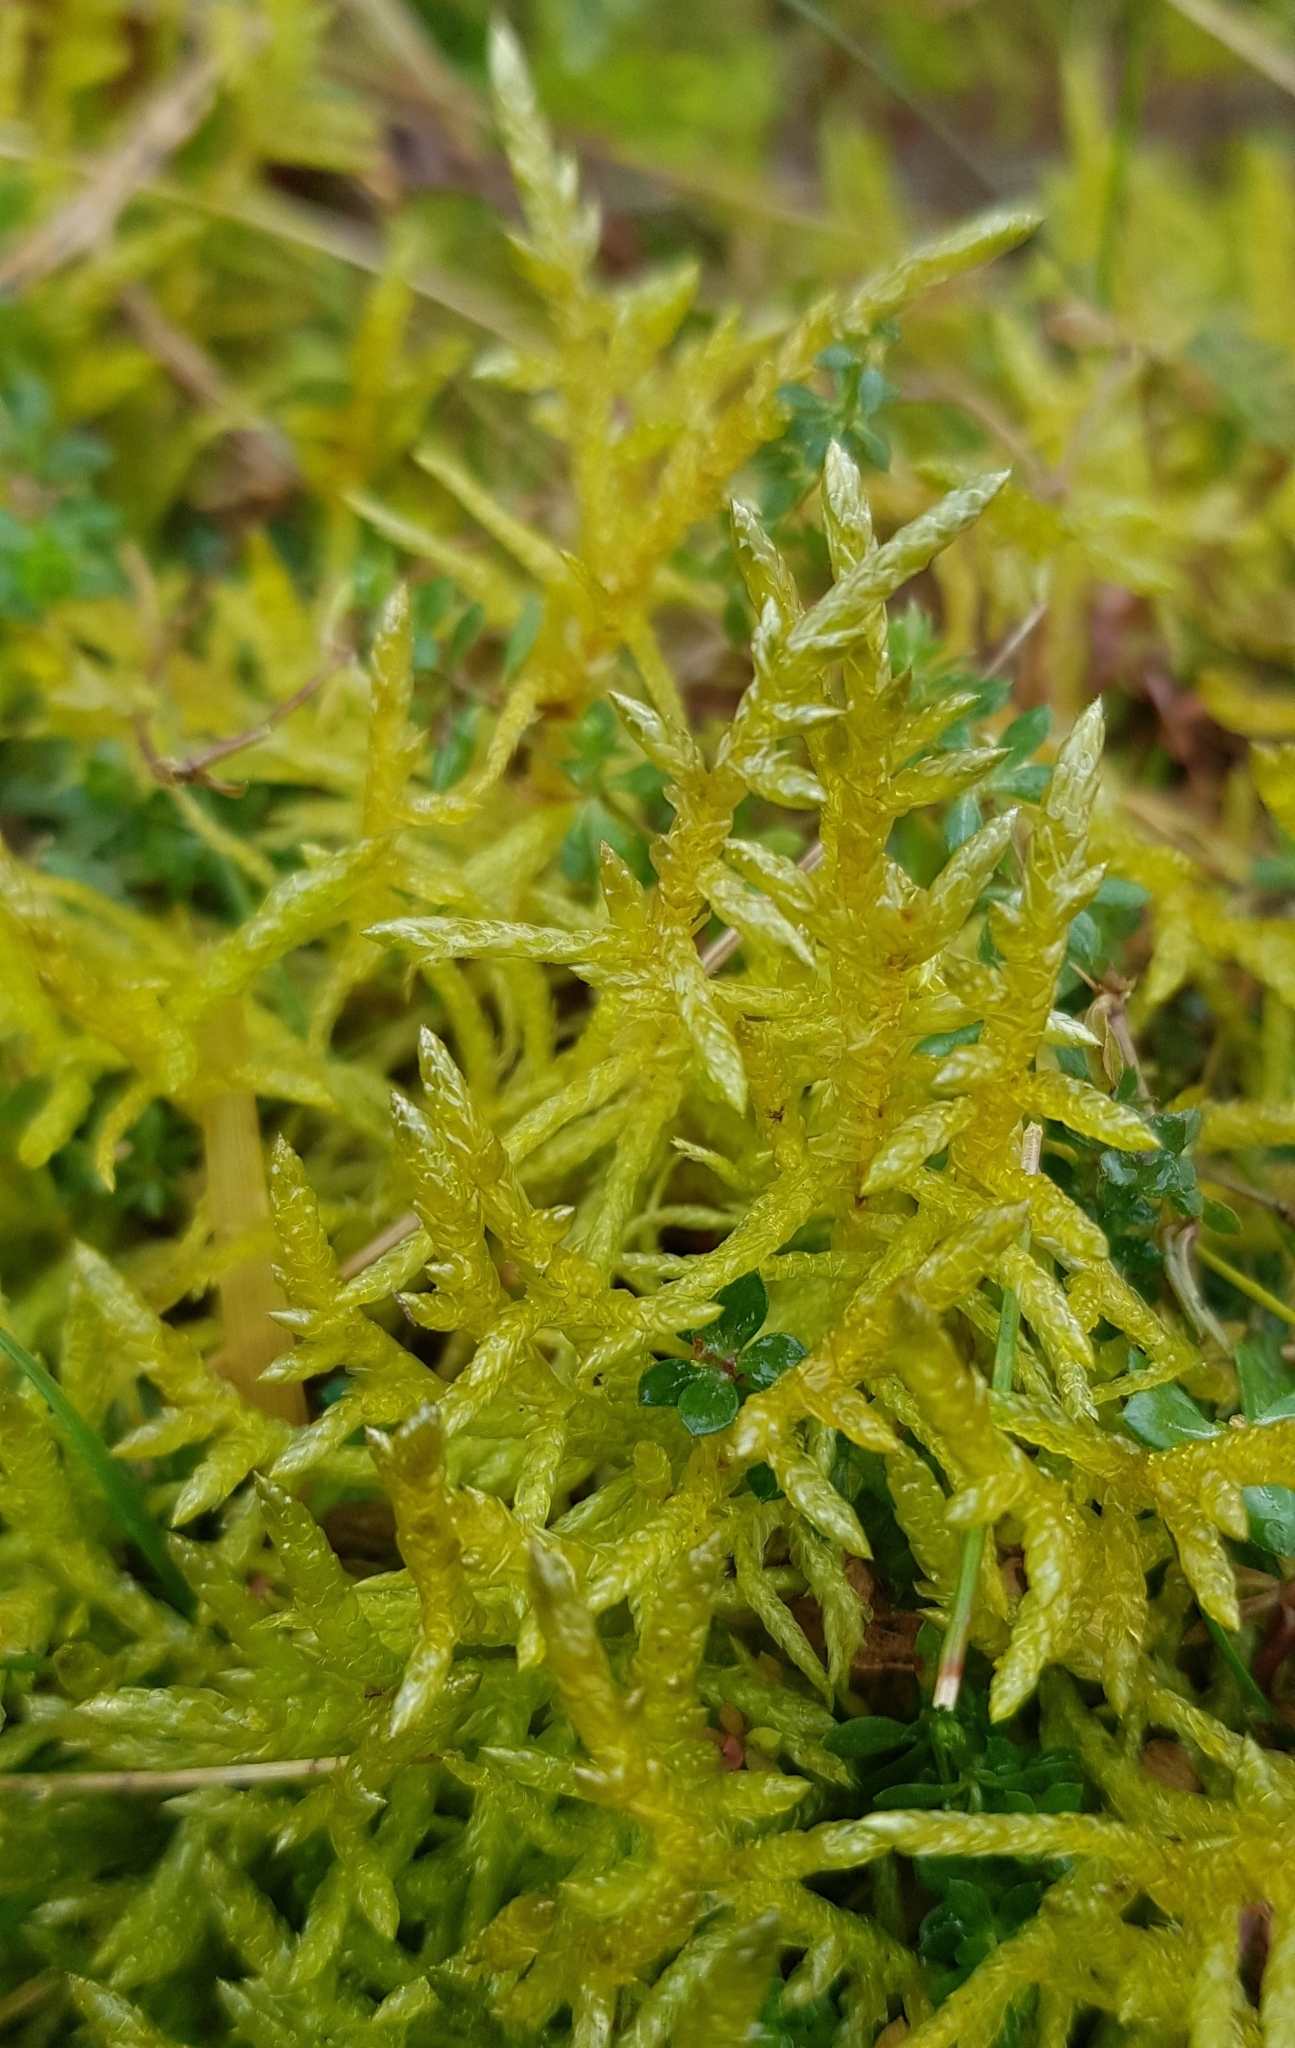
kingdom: Plantae
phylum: Bryophyta
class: Bryopsida
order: Hypnales
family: Brachytheciaceae
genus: Pseudoscleropodium
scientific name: Pseudoscleropodium purum
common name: Neat feather-moss
